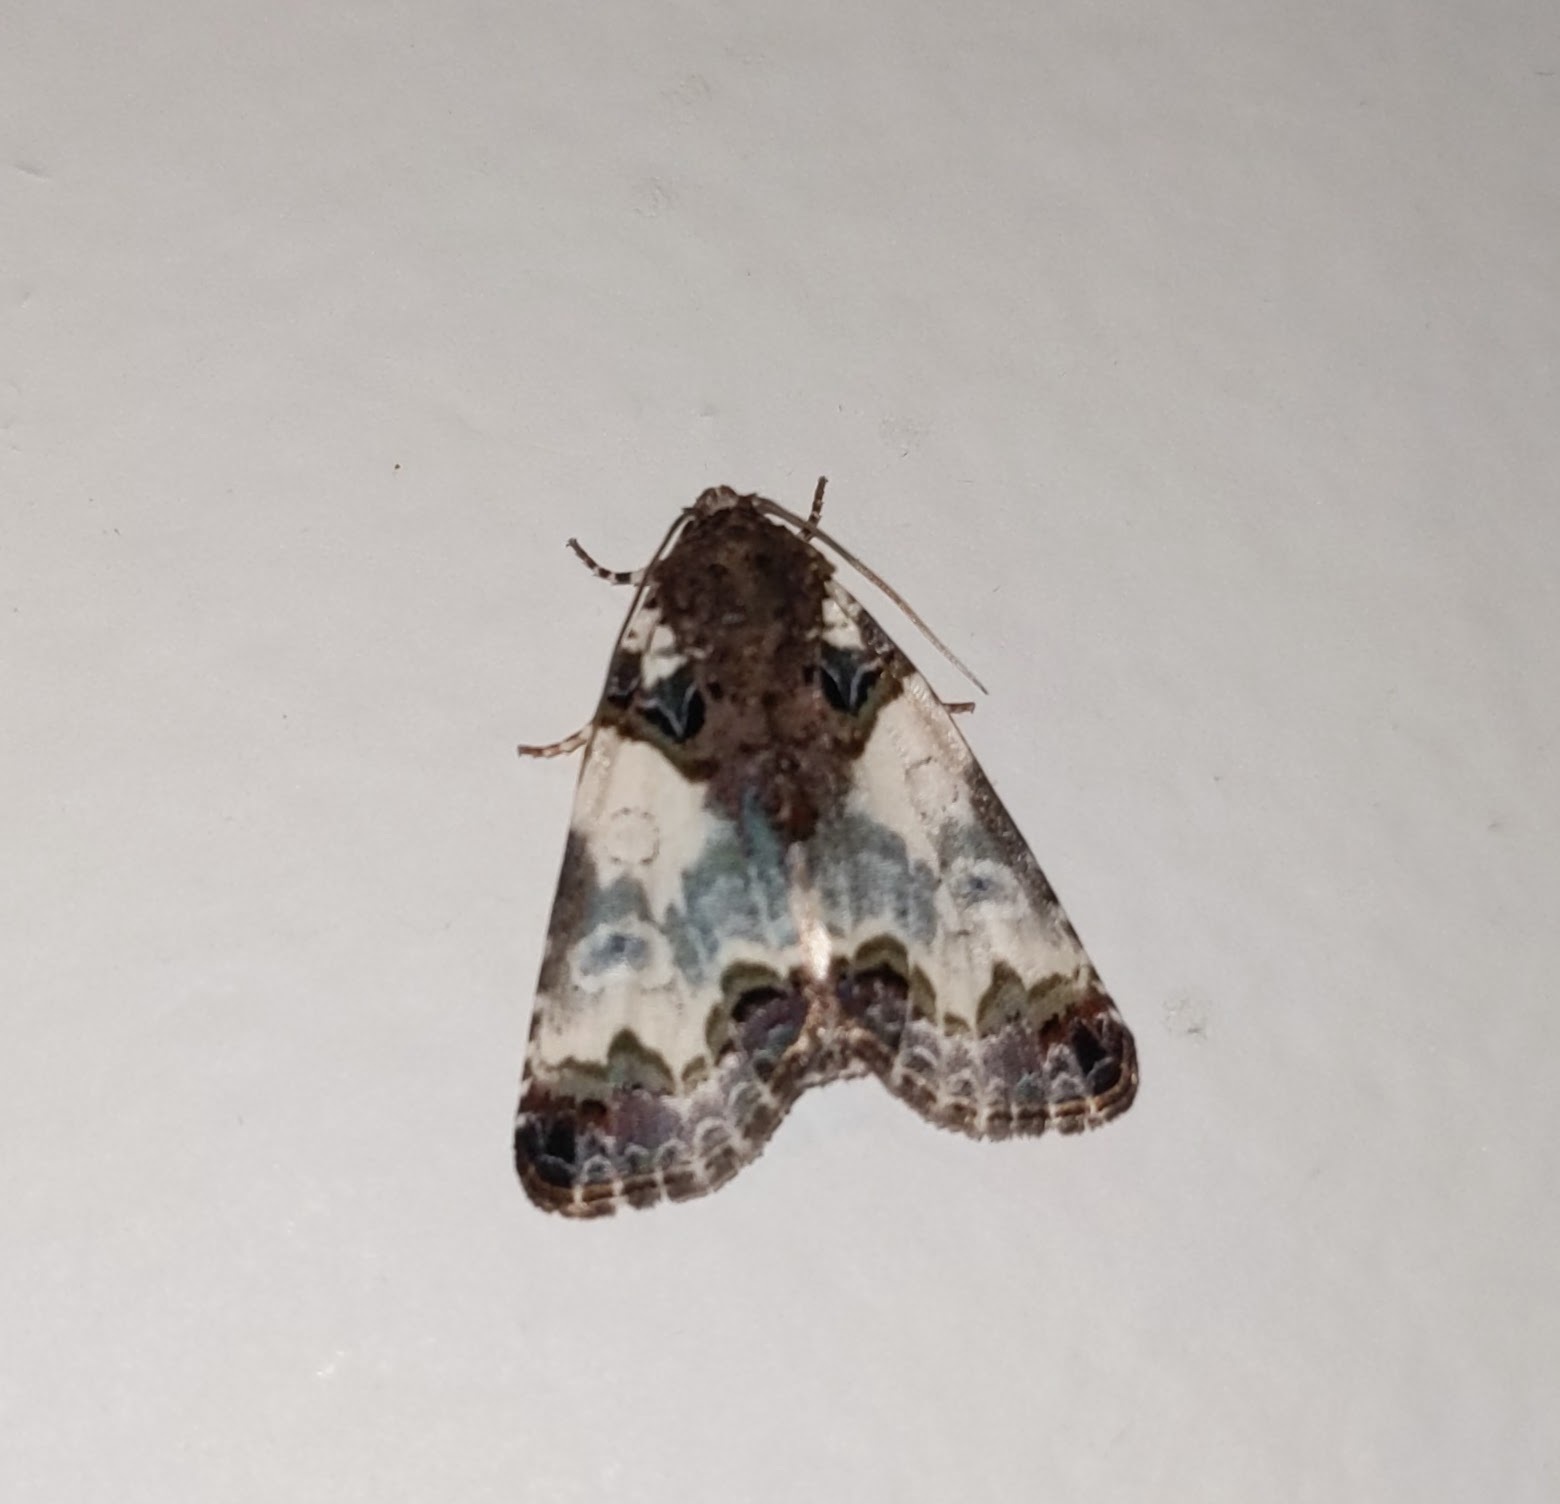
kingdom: Animalia
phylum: Arthropoda
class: Insecta
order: Lepidoptera
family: Noctuidae
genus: Cerma
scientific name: Cerma cerintha
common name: Tufted bird-dropping moth
